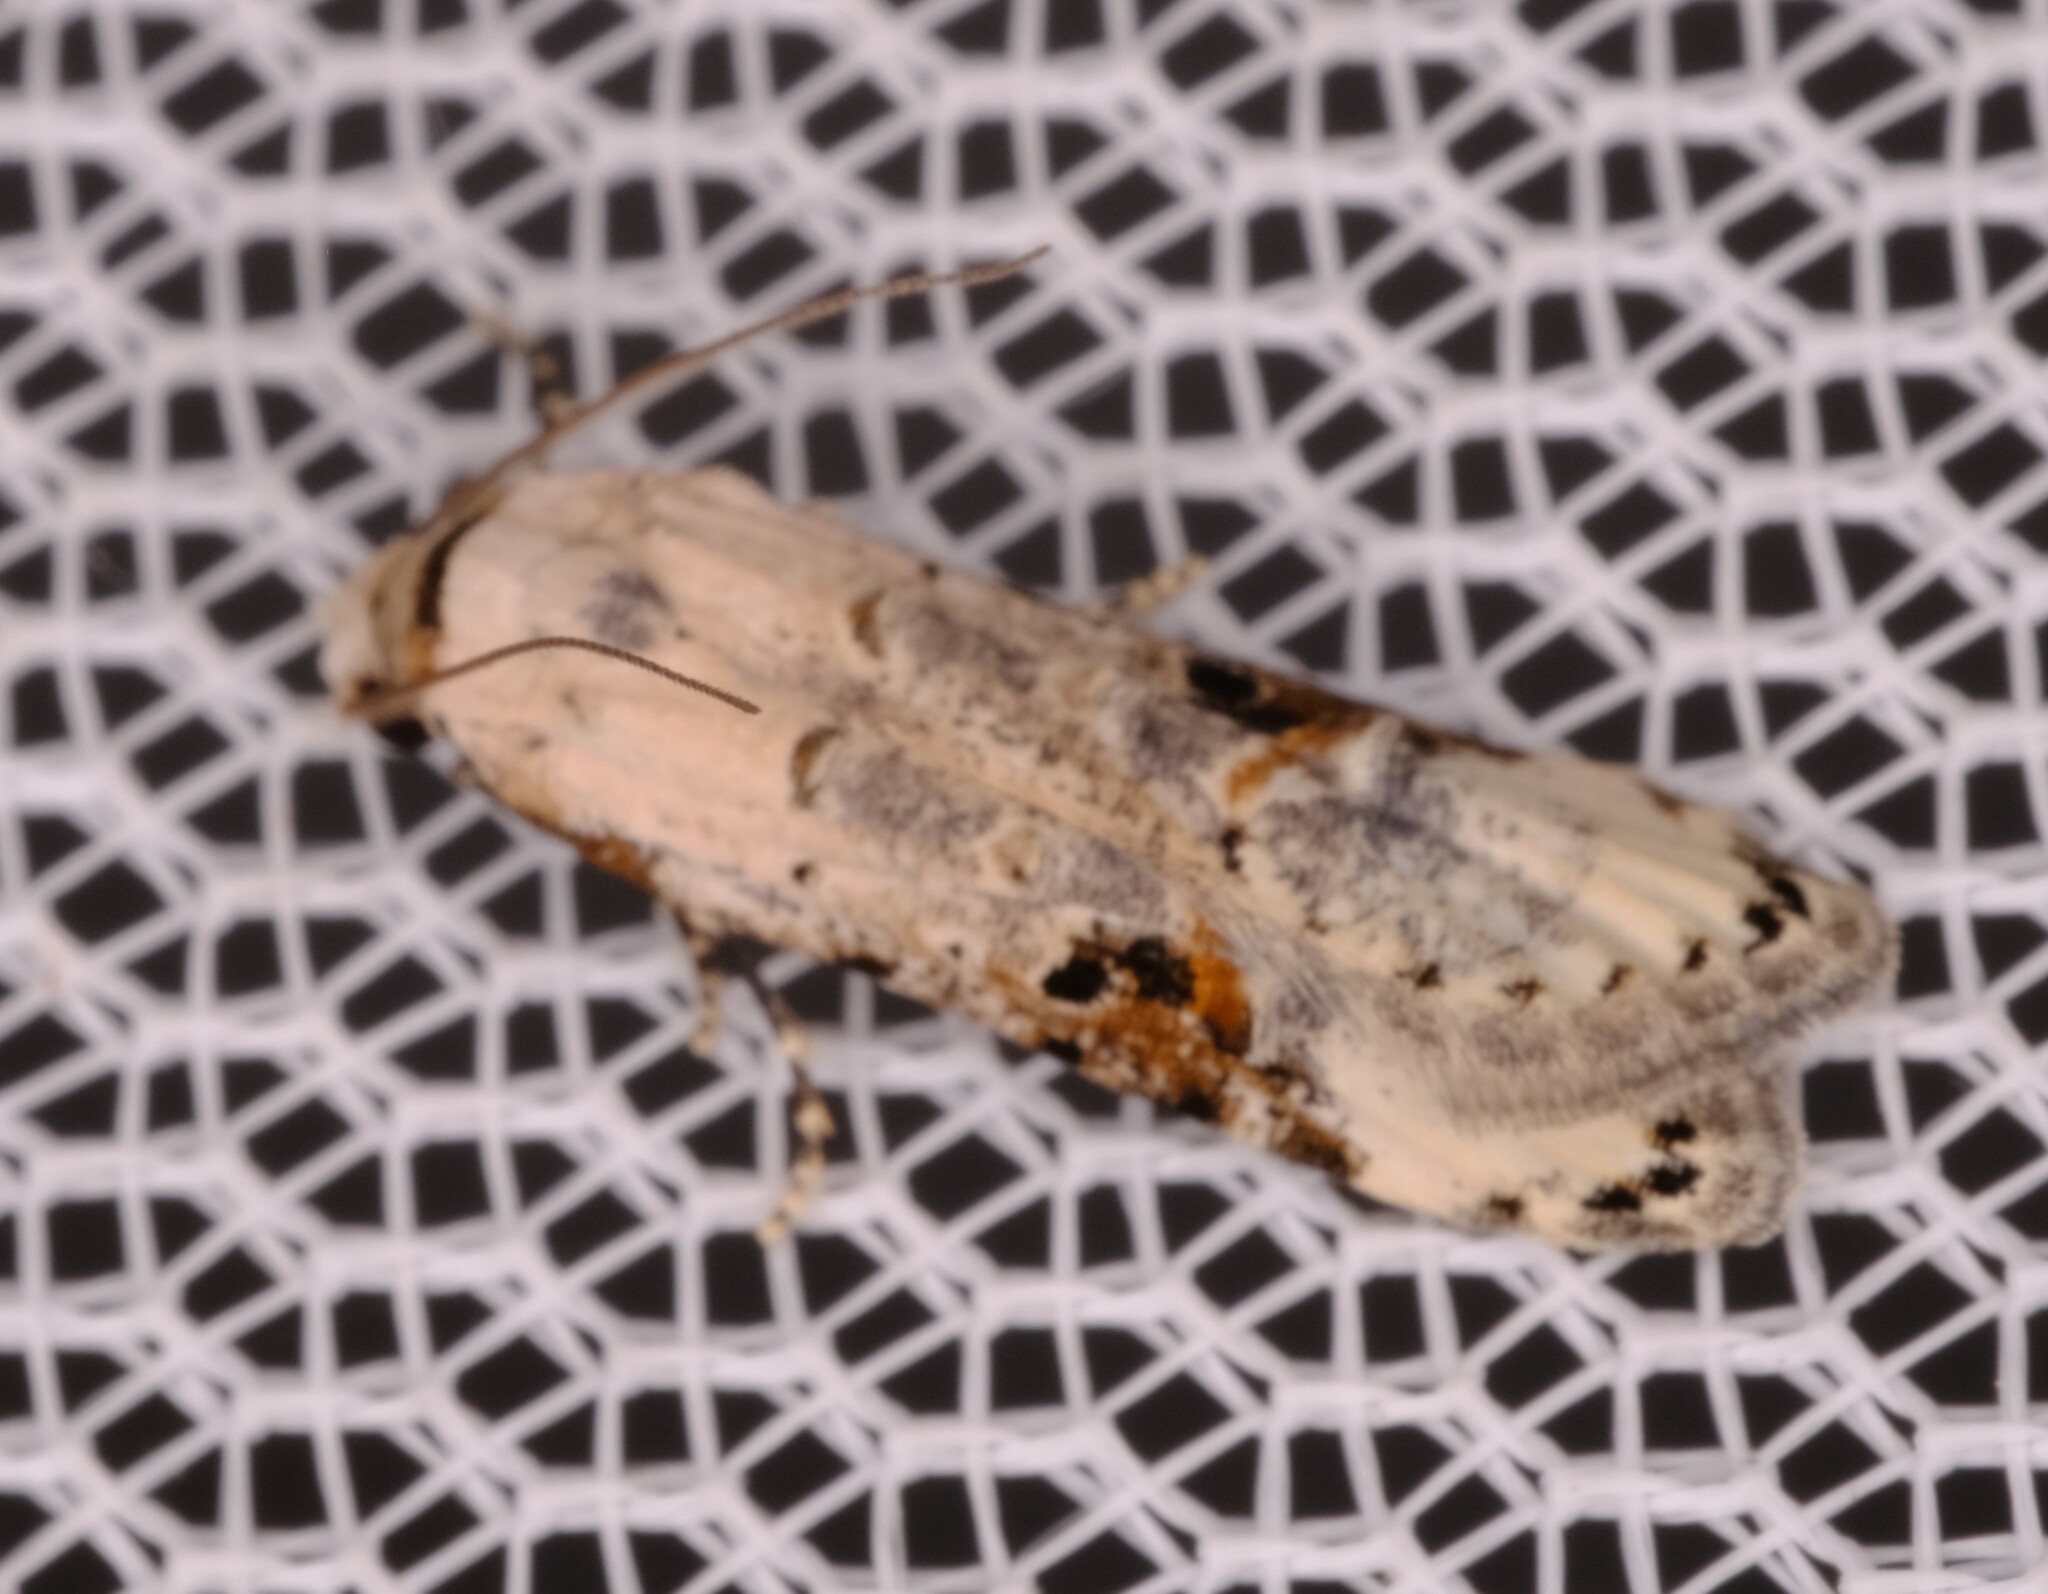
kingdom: Animalia
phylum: Arthropoda
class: Insecta
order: Lepidoptera
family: Carposinidae
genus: Sosineura
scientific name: Sosineura mimica
